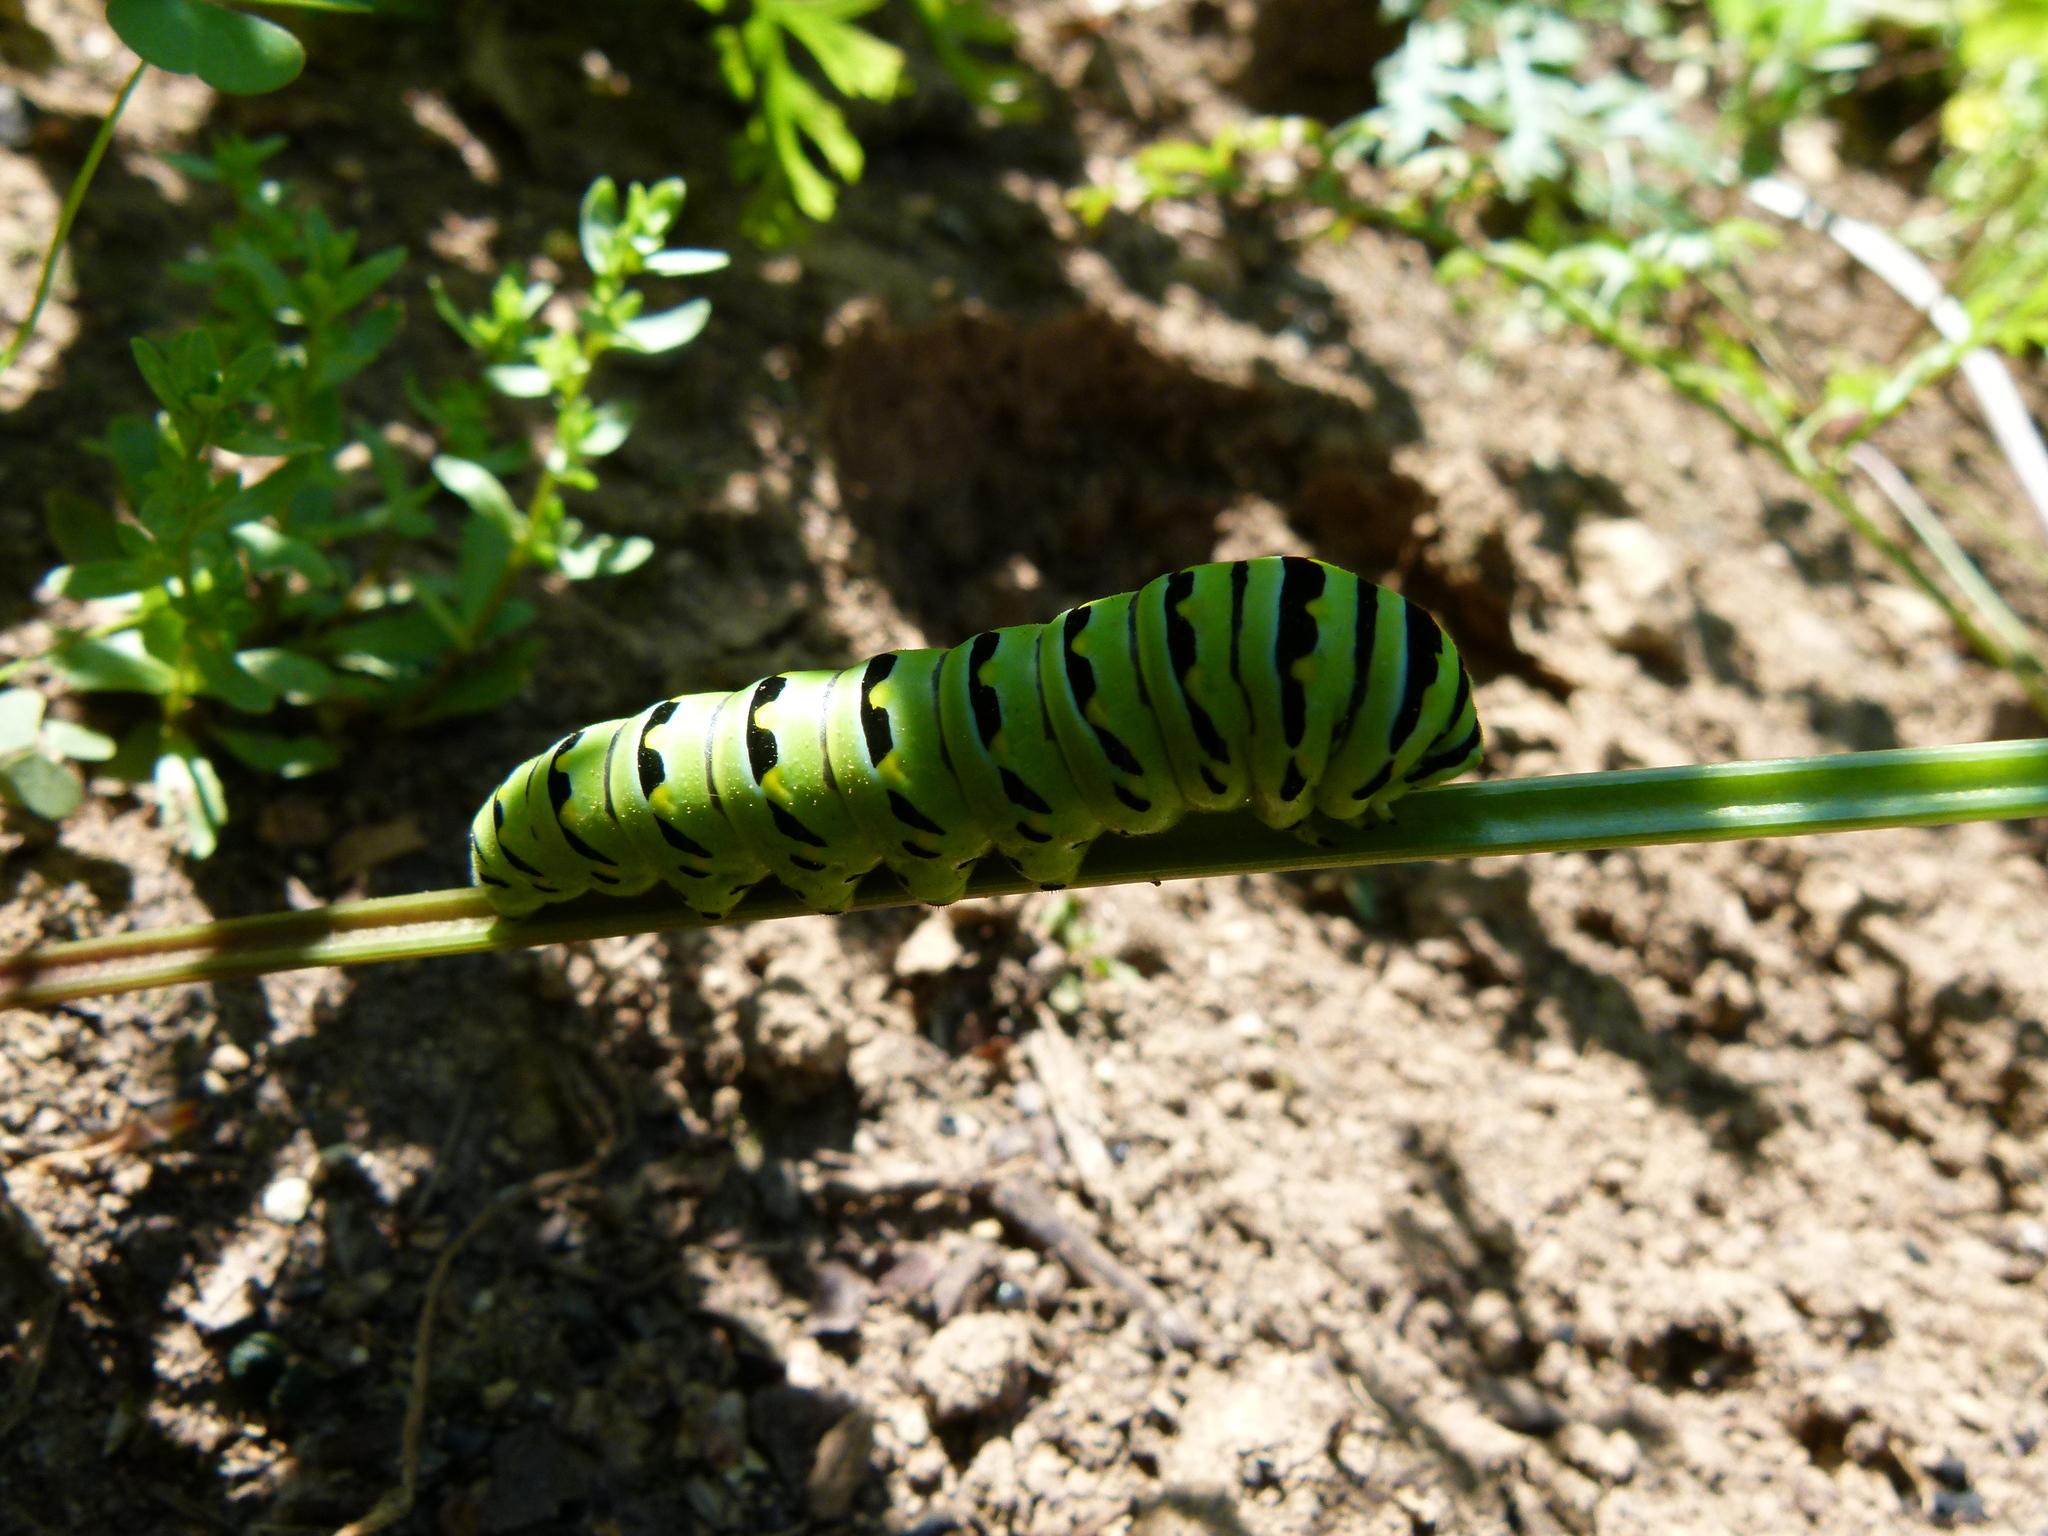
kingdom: Animalia
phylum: Arthropoda
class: Insecta
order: Lepidoptera
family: Papilionidae
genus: Papilio
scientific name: Papilio polyxenes
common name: Black swallowtail
